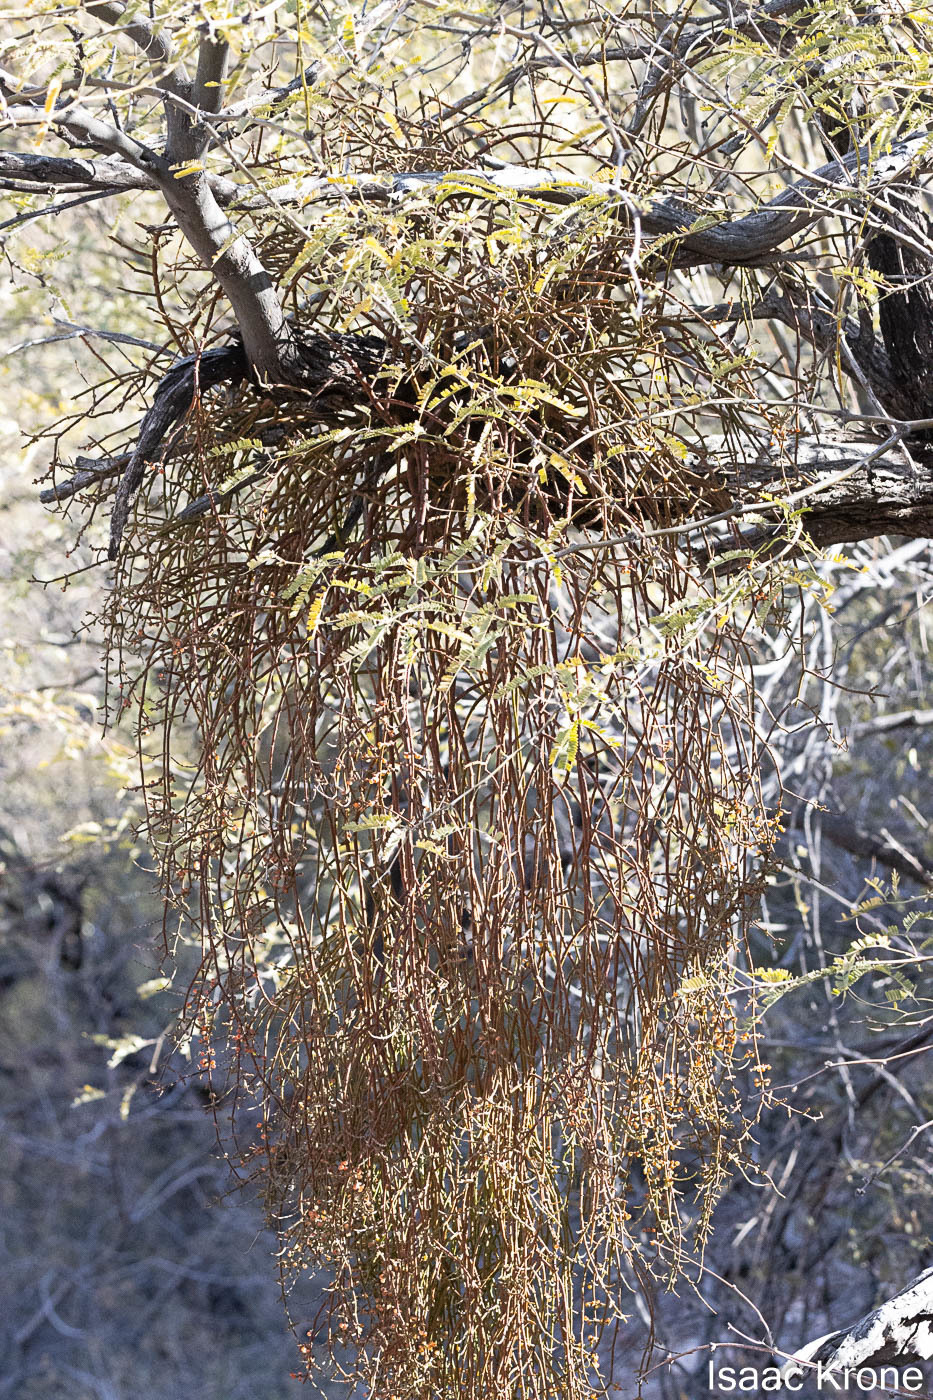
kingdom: Plantae
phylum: Tracheophyta
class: Magnoliopsida
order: Santalales
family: Viscaceae
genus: Phoradendron
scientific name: Phoradendron californicum
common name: Acacia mistletoe
